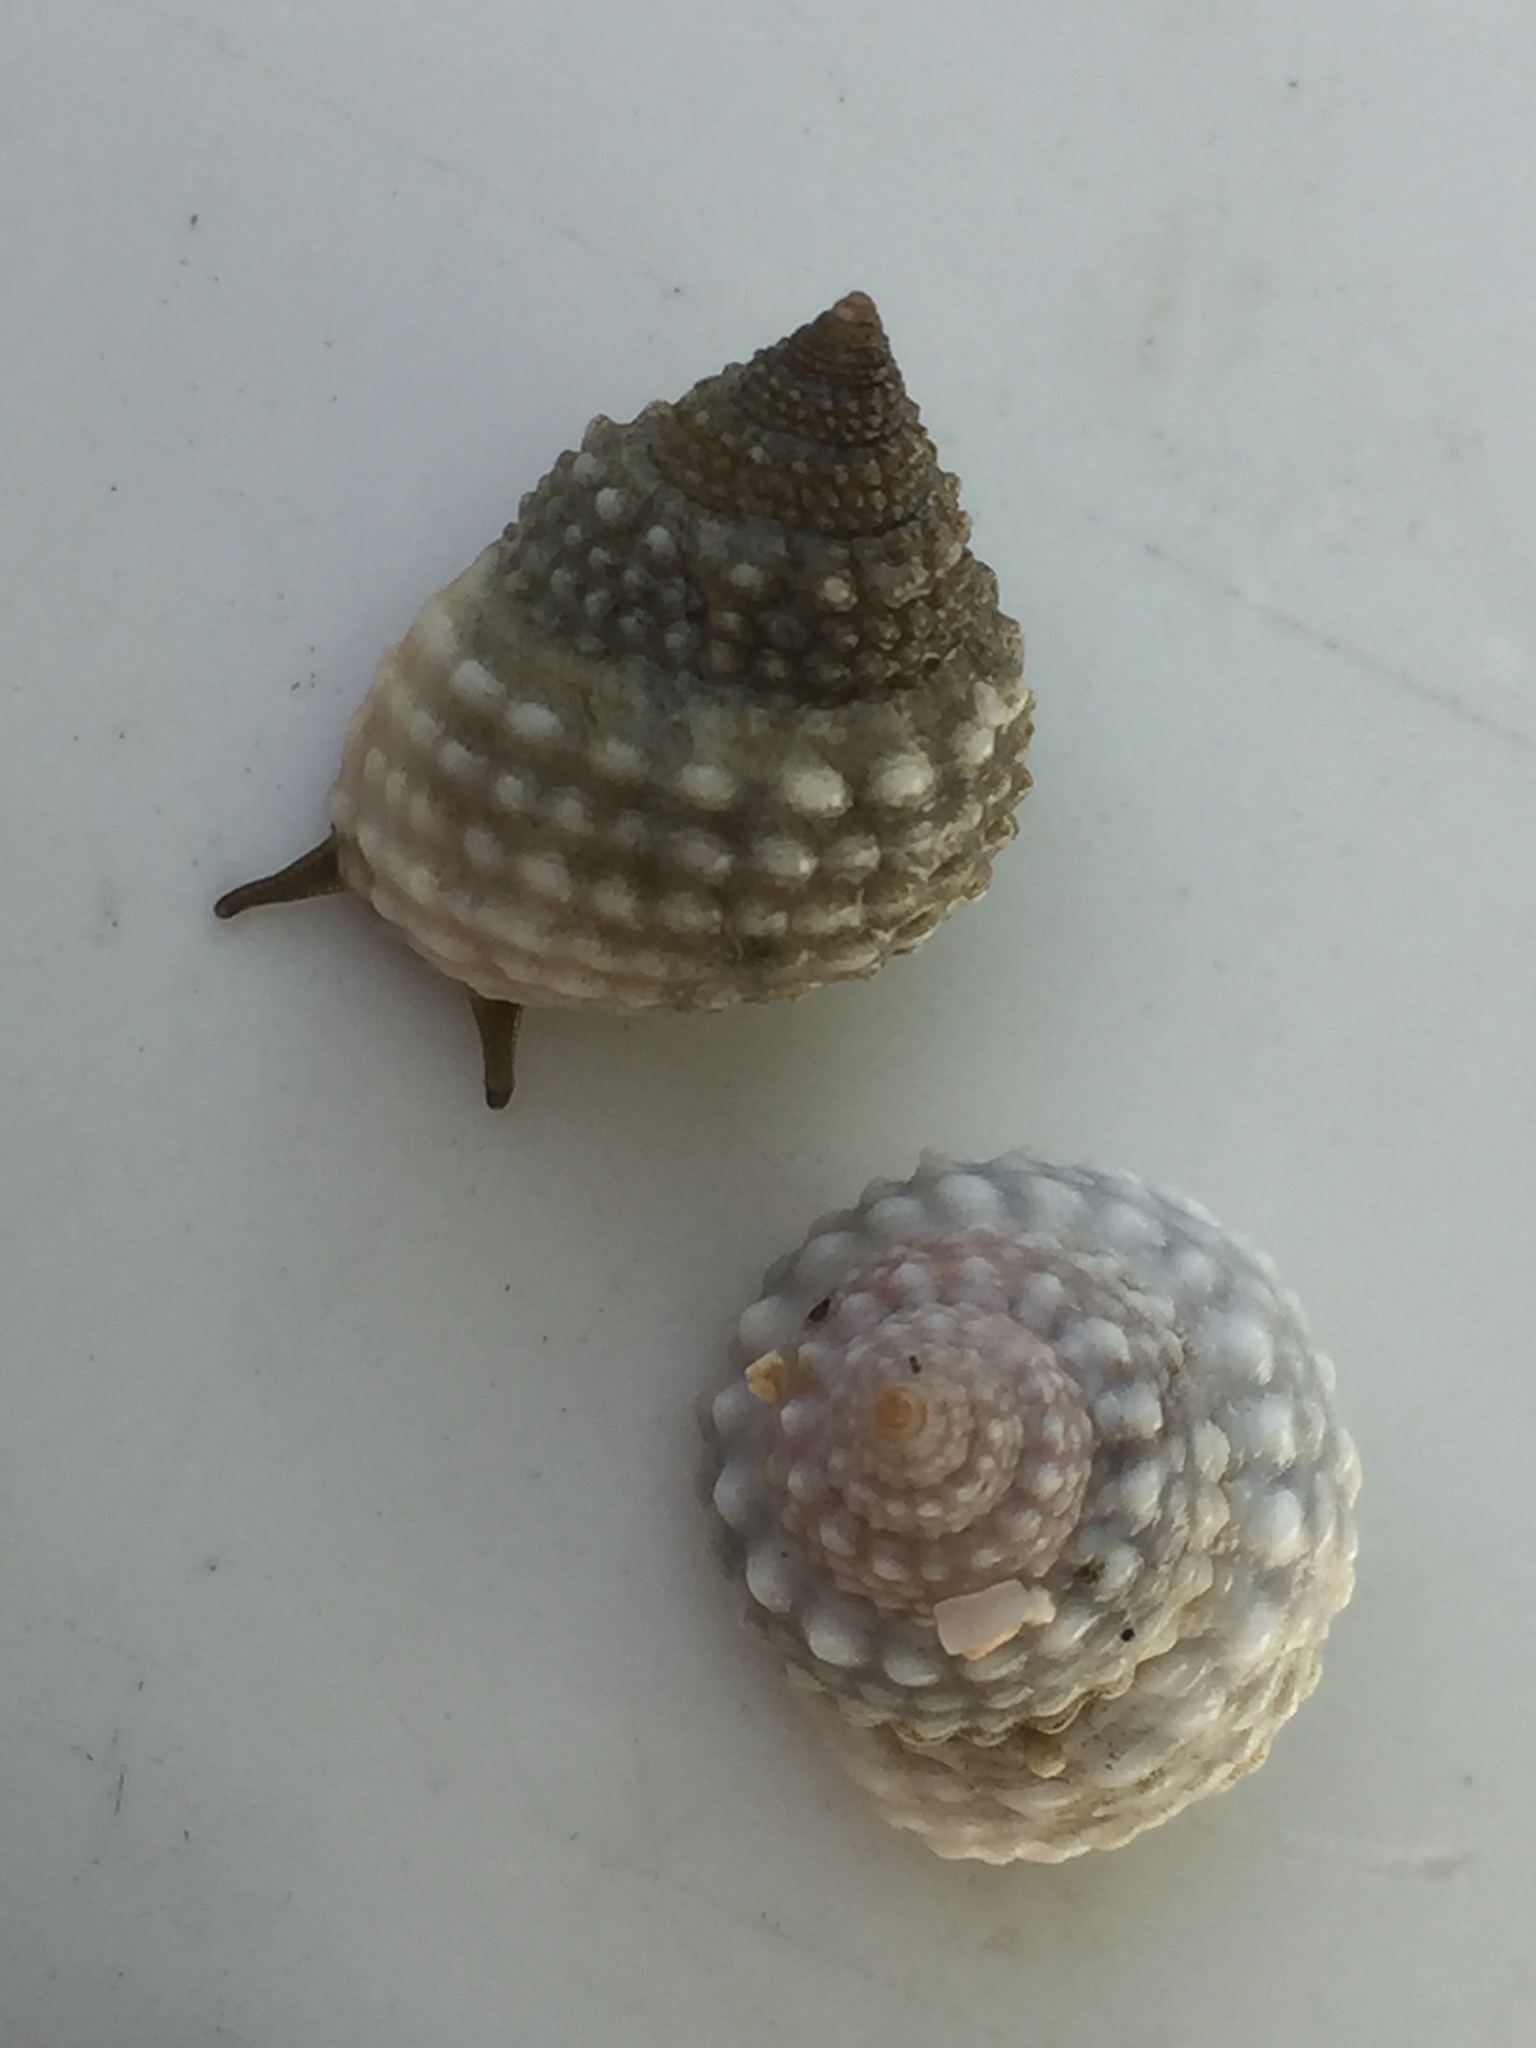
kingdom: Animalia
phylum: Mollusca
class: Gastropoda
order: Littorinimorpha
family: Littorinidae
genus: Cenchritis
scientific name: Cenchritis muricatus
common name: Beaded periwinkle
